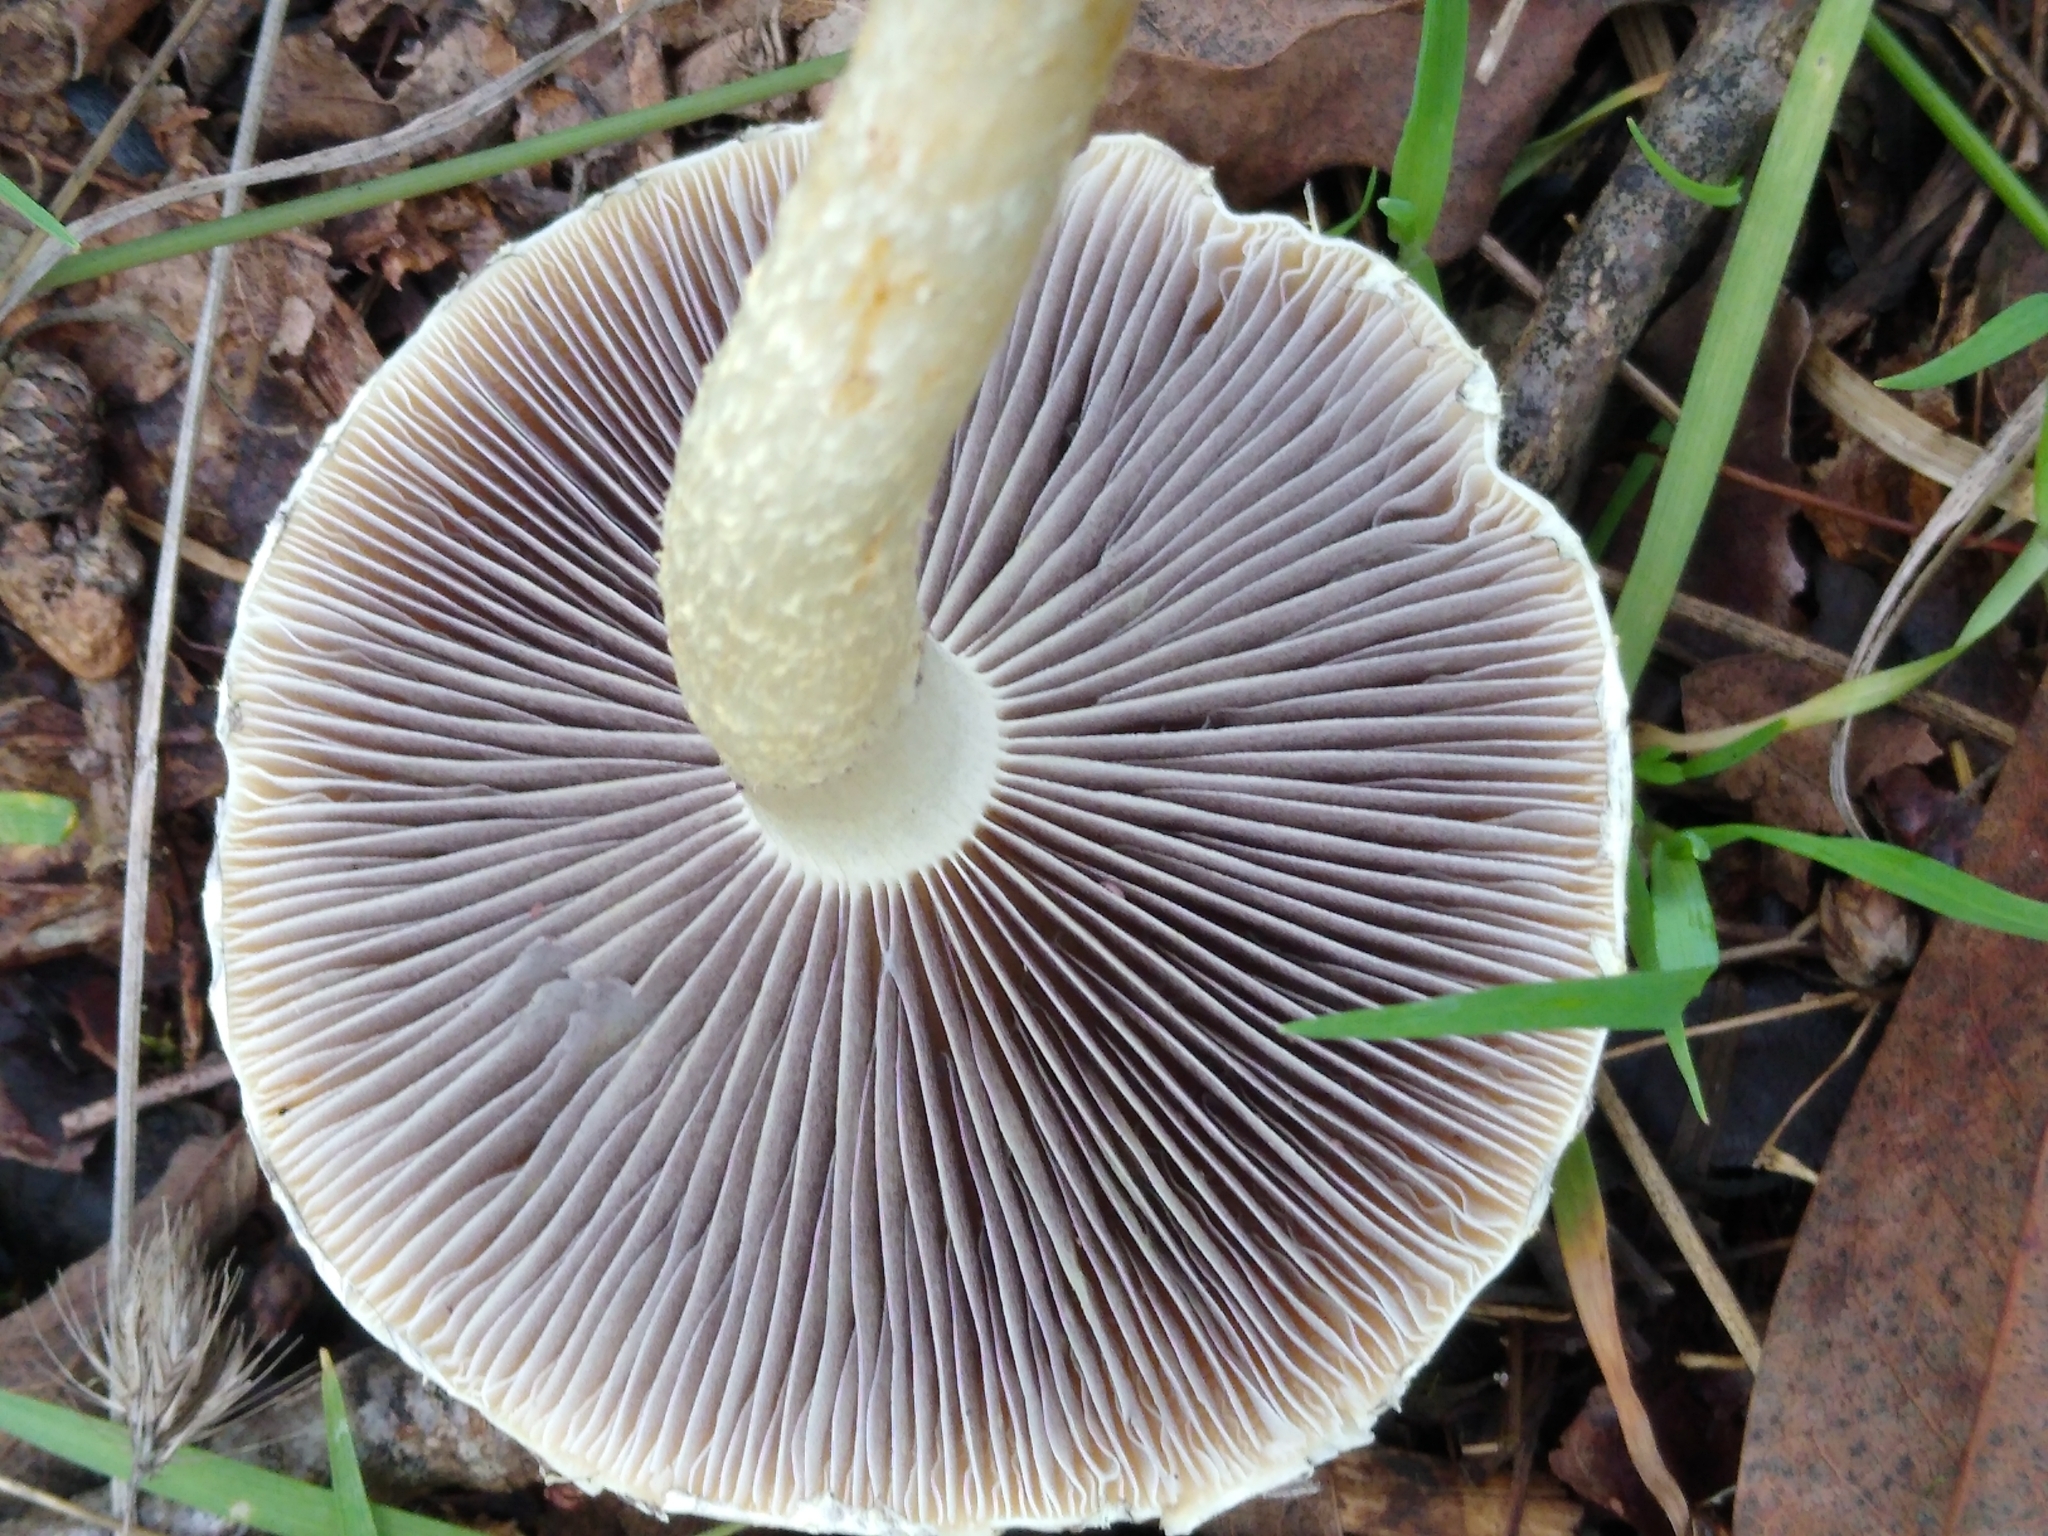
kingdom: Fungi
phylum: Basidiomycota
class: Agaricomycetes
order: Agaricales
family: Strophariaceae
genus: Leratiomyces
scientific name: Leratiomyces percevalii
